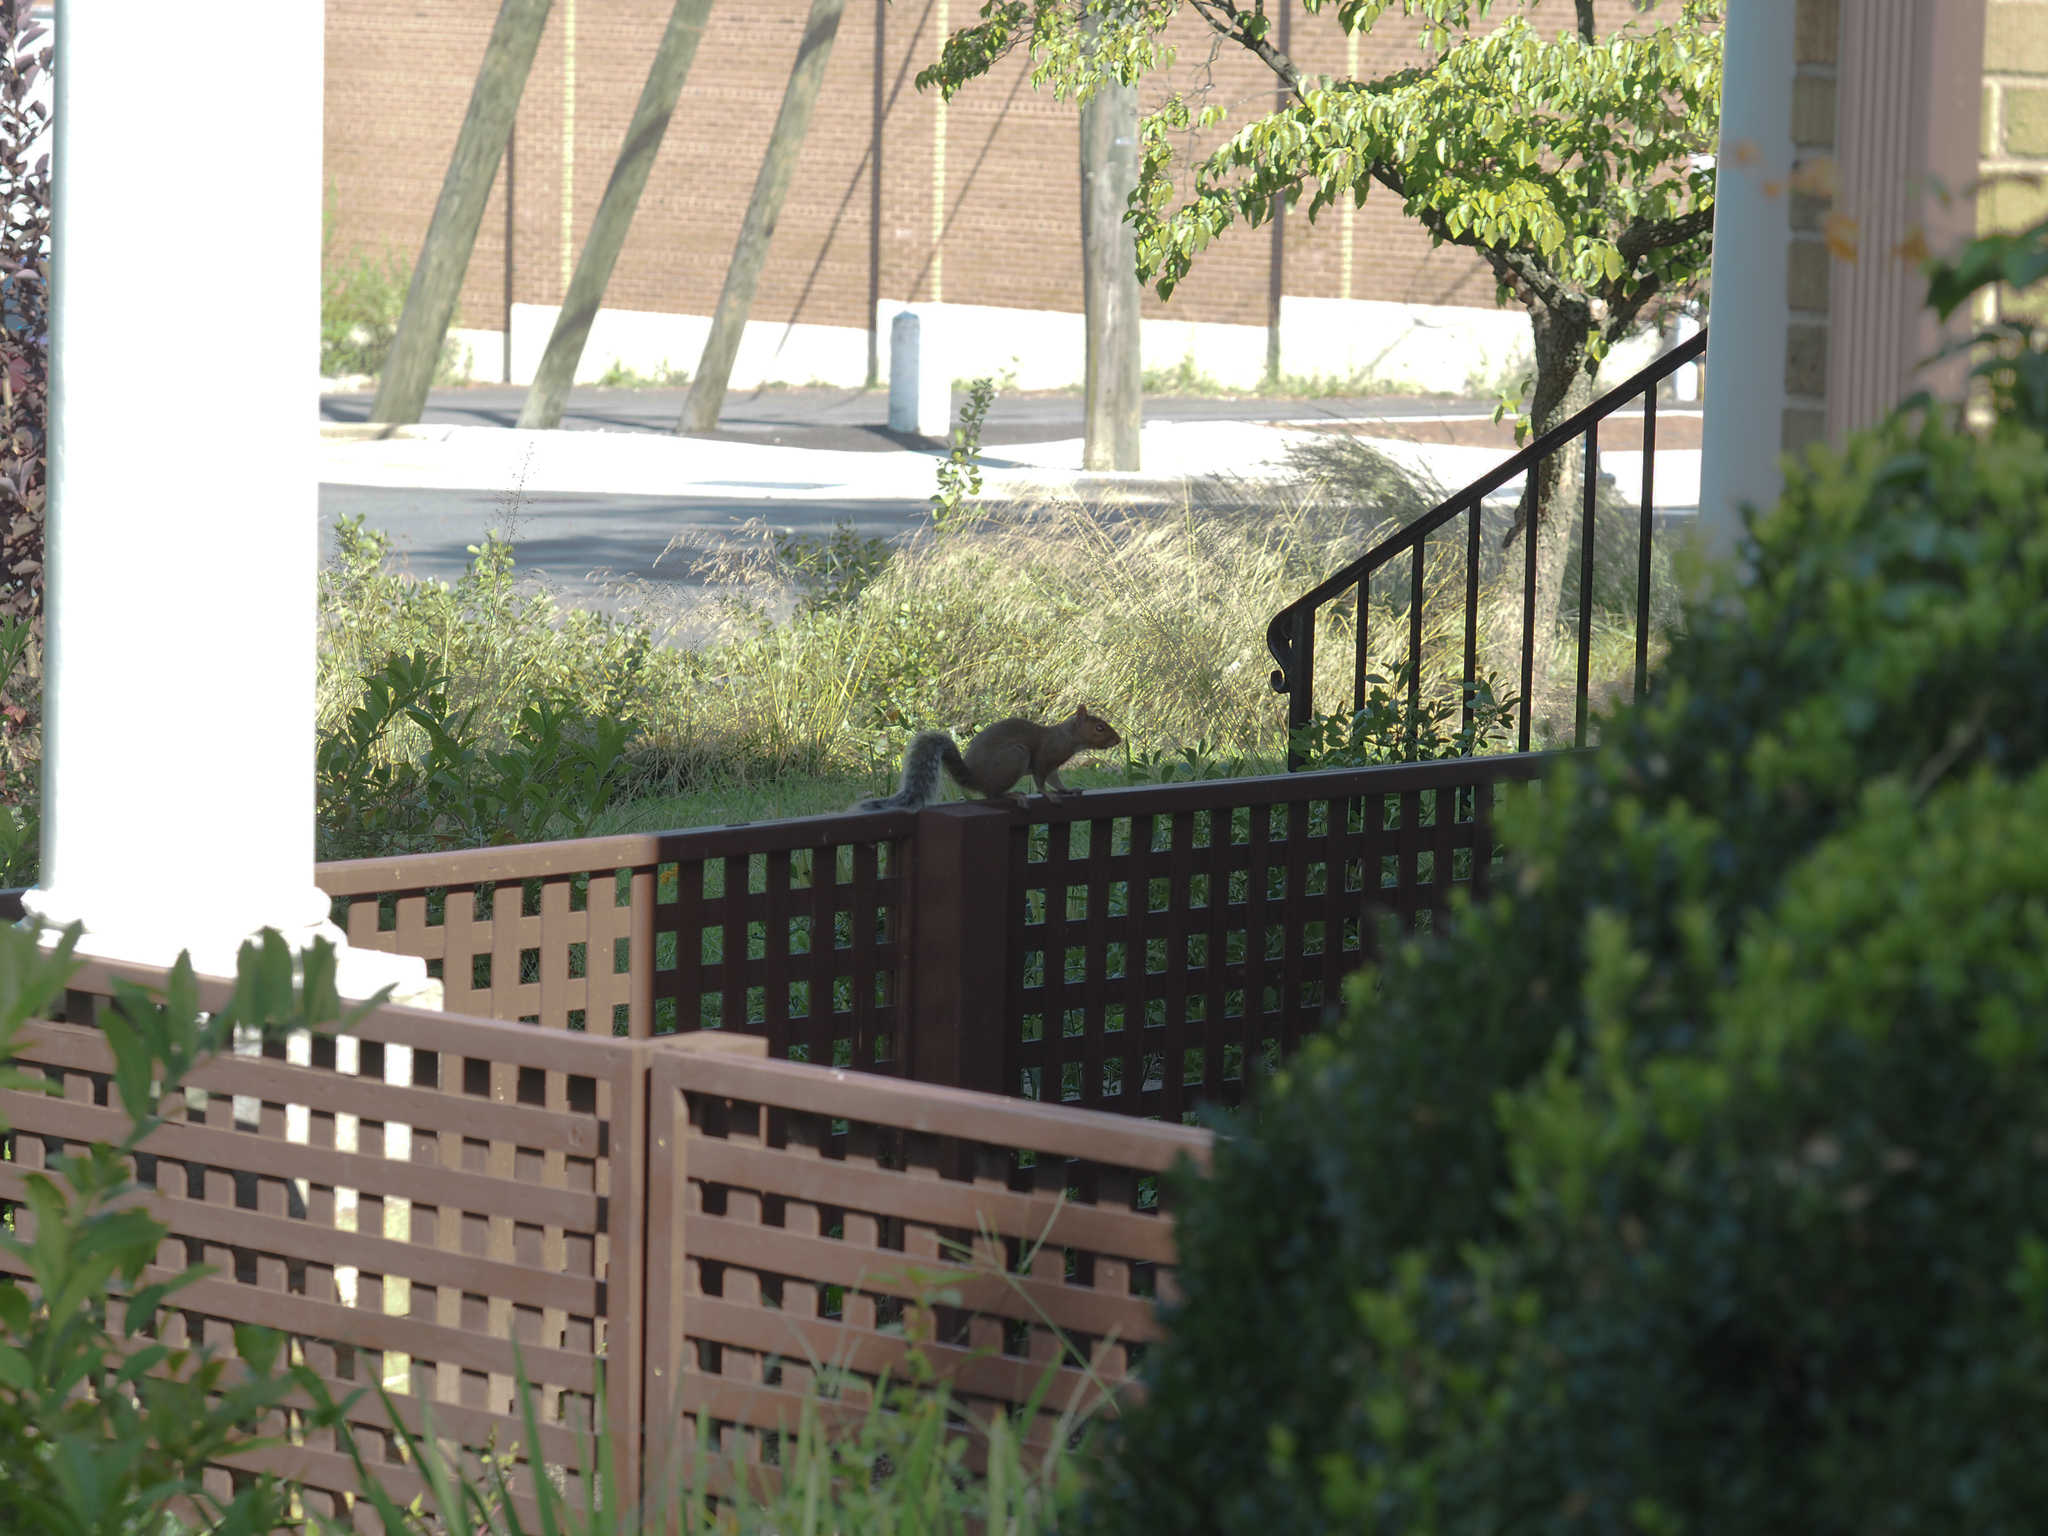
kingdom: Animalia
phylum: Chordata
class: Mammalia
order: Rodentia
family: Sciuridae
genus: Sciurus
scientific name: Sciurus carolinensis
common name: Eastern gray squirrel
